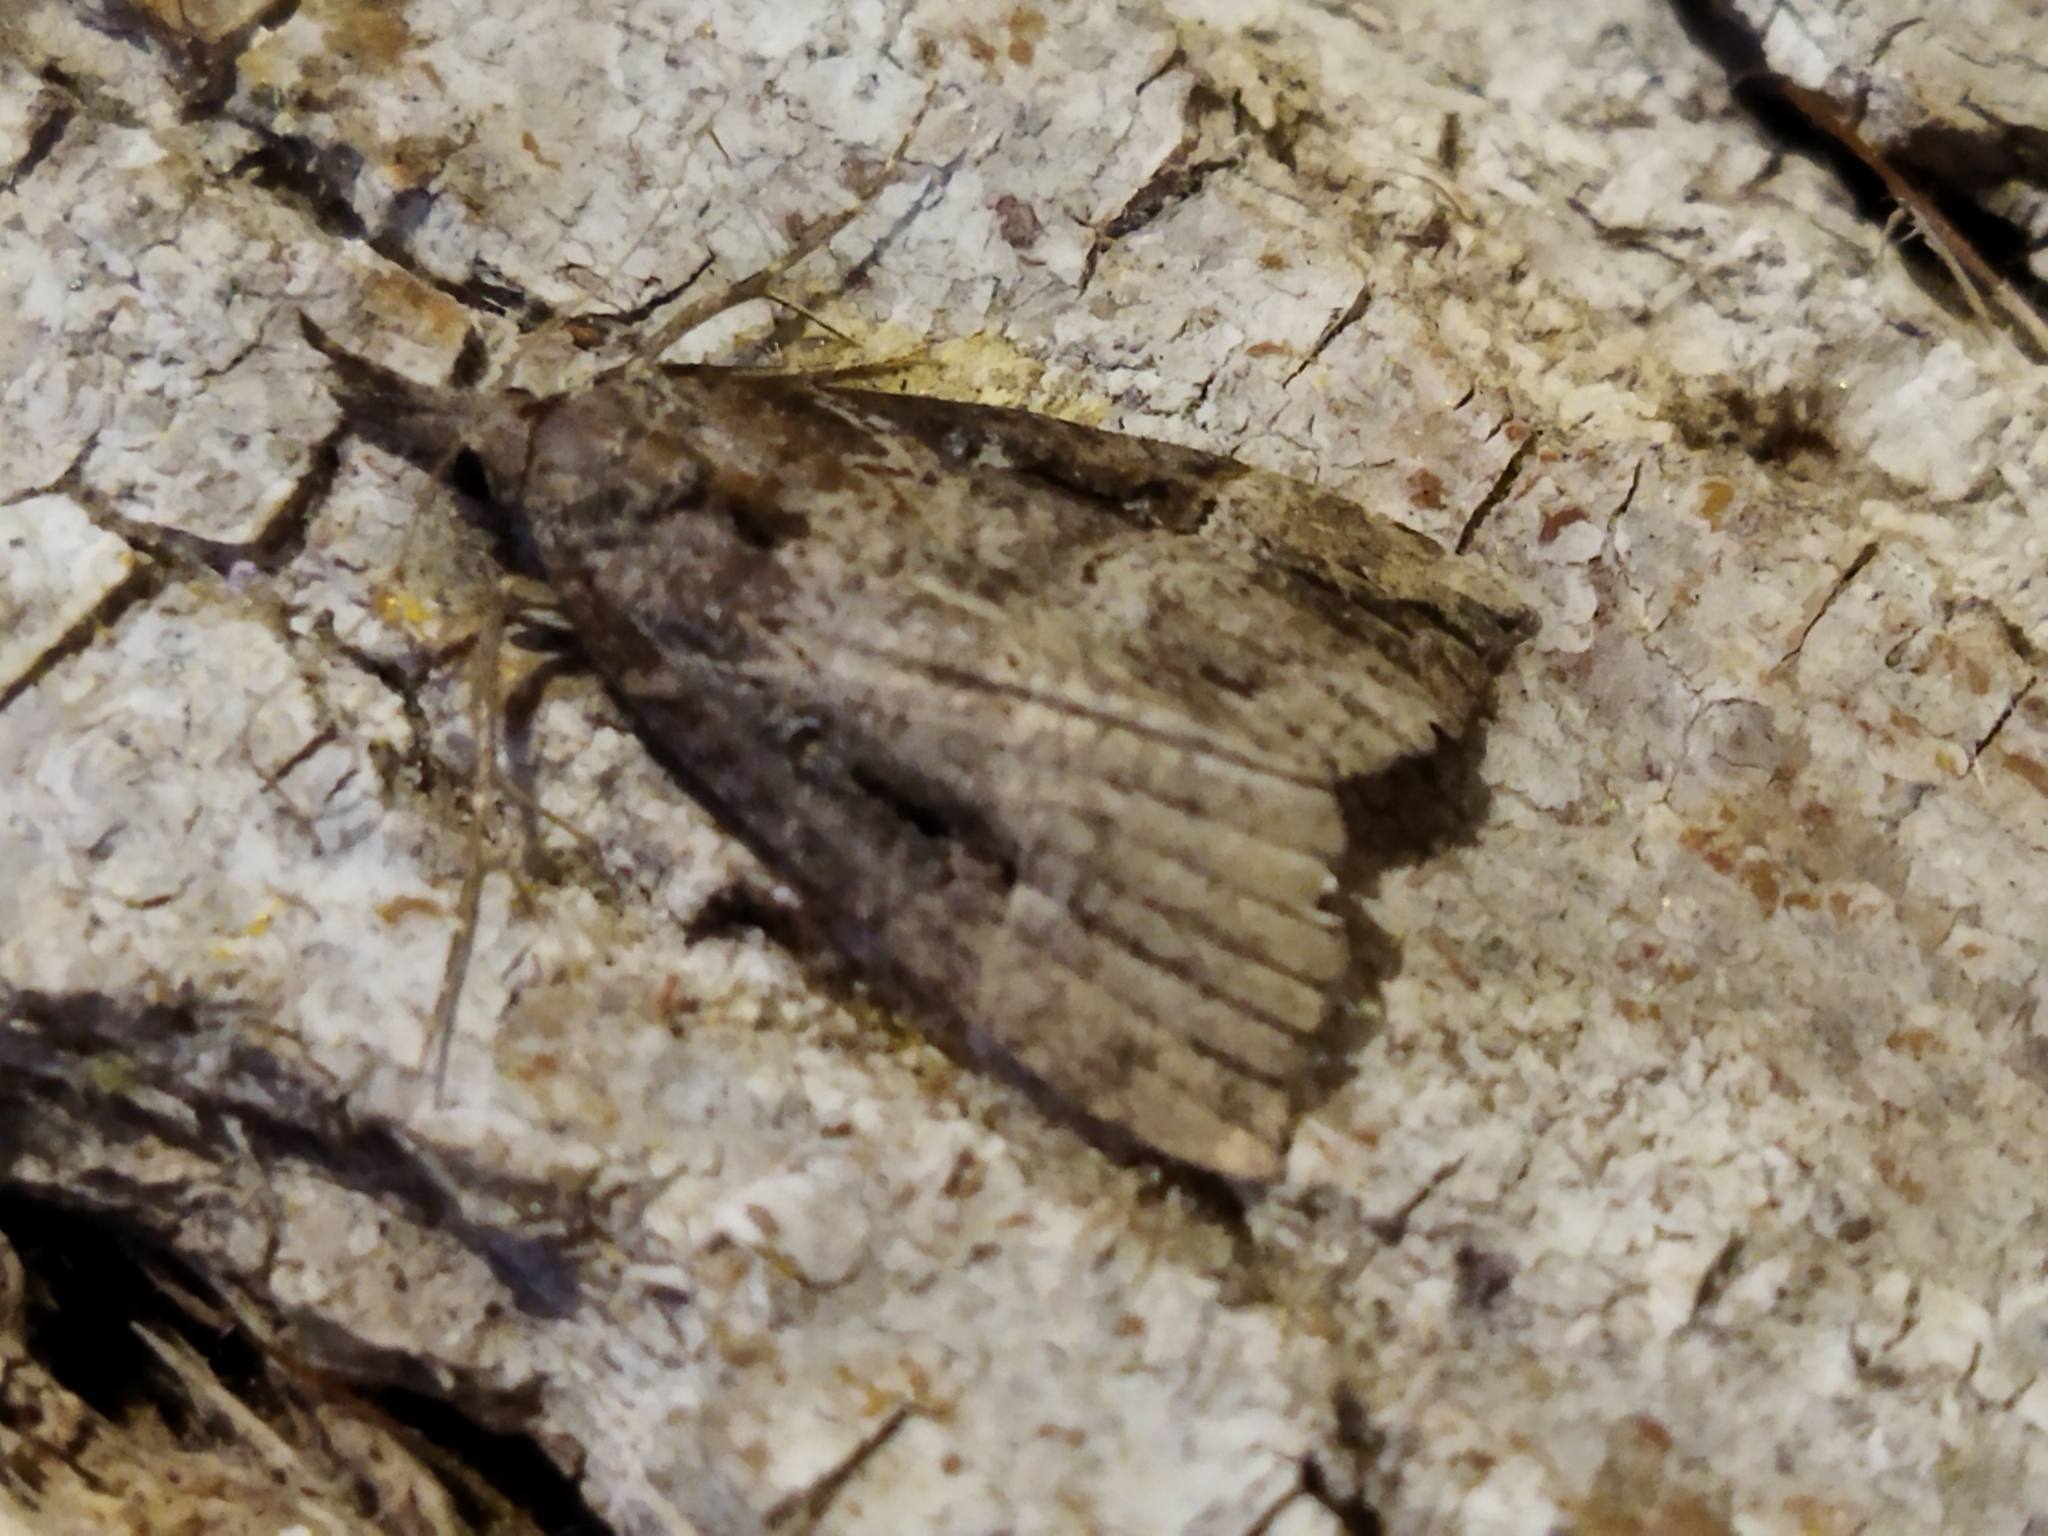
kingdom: Animalia
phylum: Arthropoda
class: Insecta
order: Lepidoptera
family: Erebidae
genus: Hypena
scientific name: Hypena rostralis
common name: Buttoned snout
